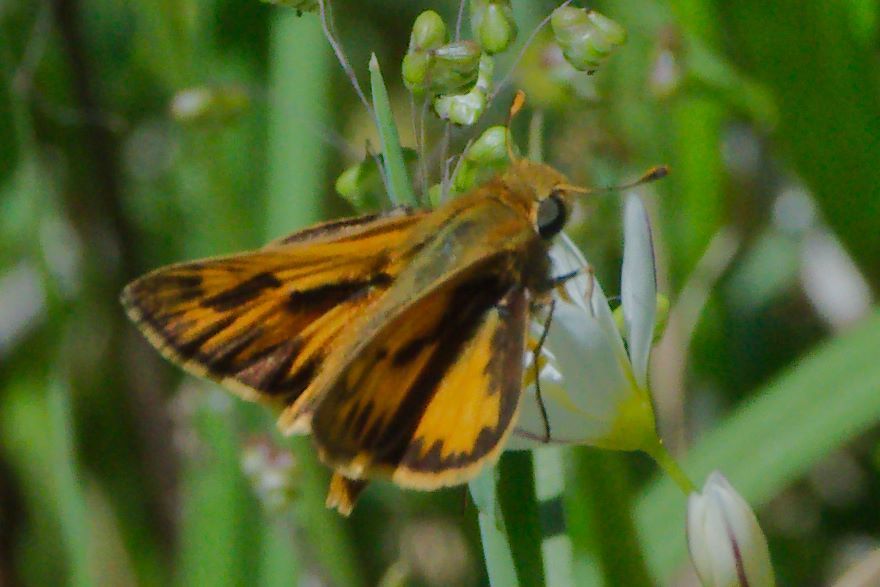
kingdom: Animalia
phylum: Arthropoda
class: Insecta
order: Lepidoptera
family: Hesperiidae
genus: Hylephila
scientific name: Hylephila phyleus
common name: Fiery skipper
